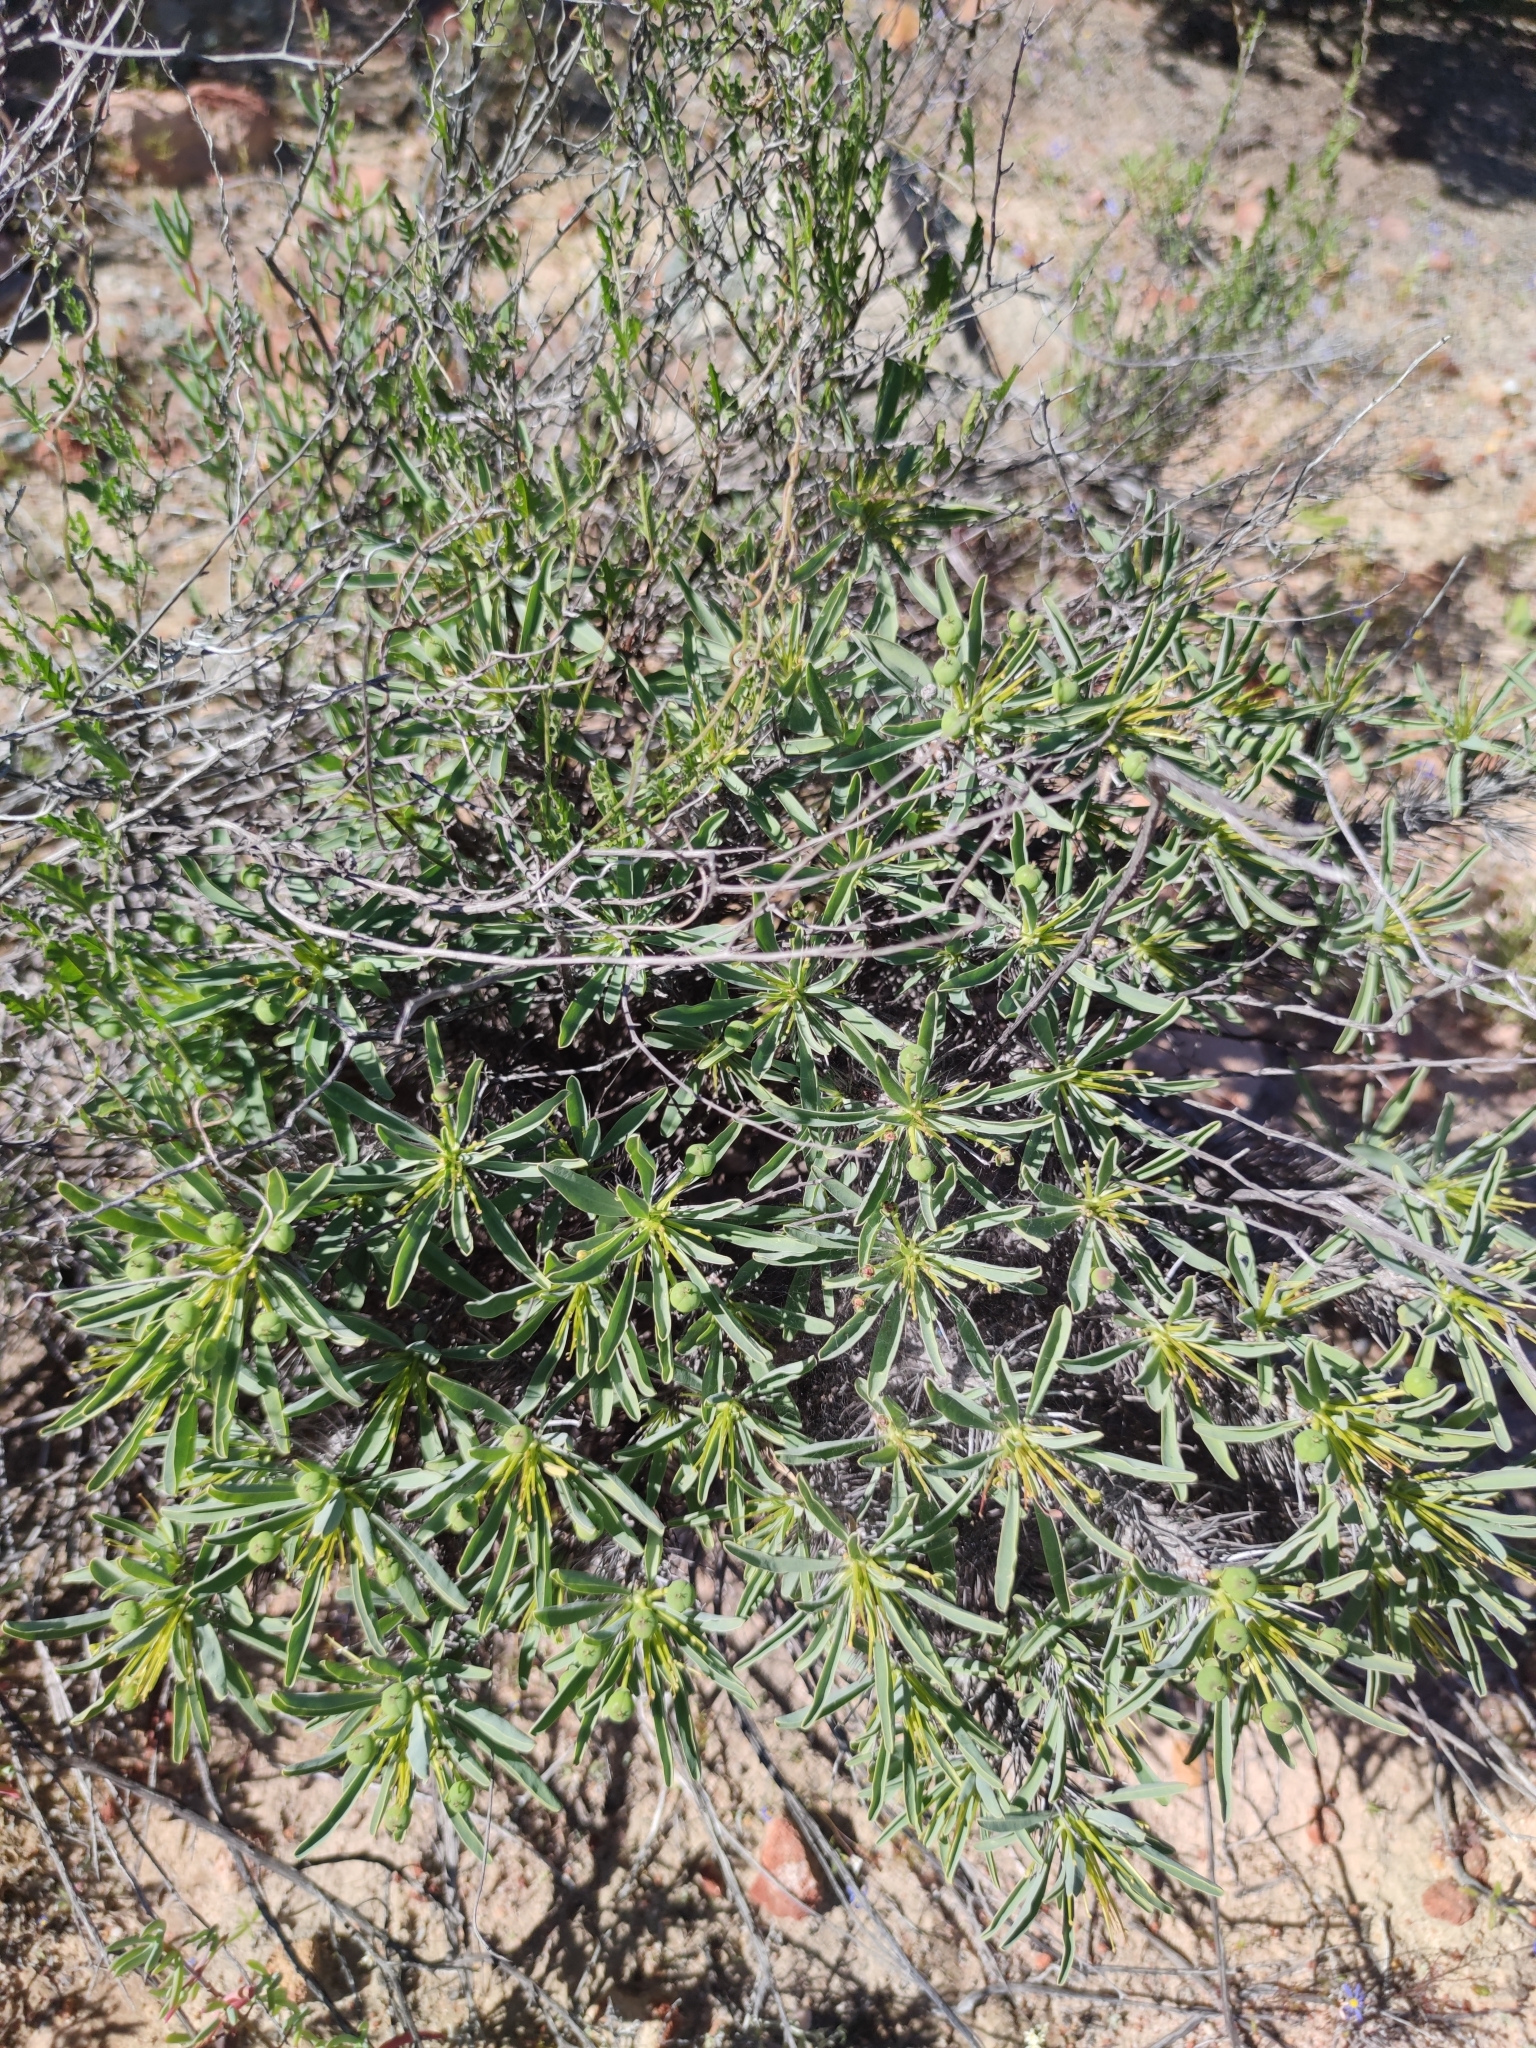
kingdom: Plantae
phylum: Tracheophyta
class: Magnoliopsida
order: Malpighiales
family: Euphorbiaceae
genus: Euphorbia
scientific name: Euphorbia loricata
